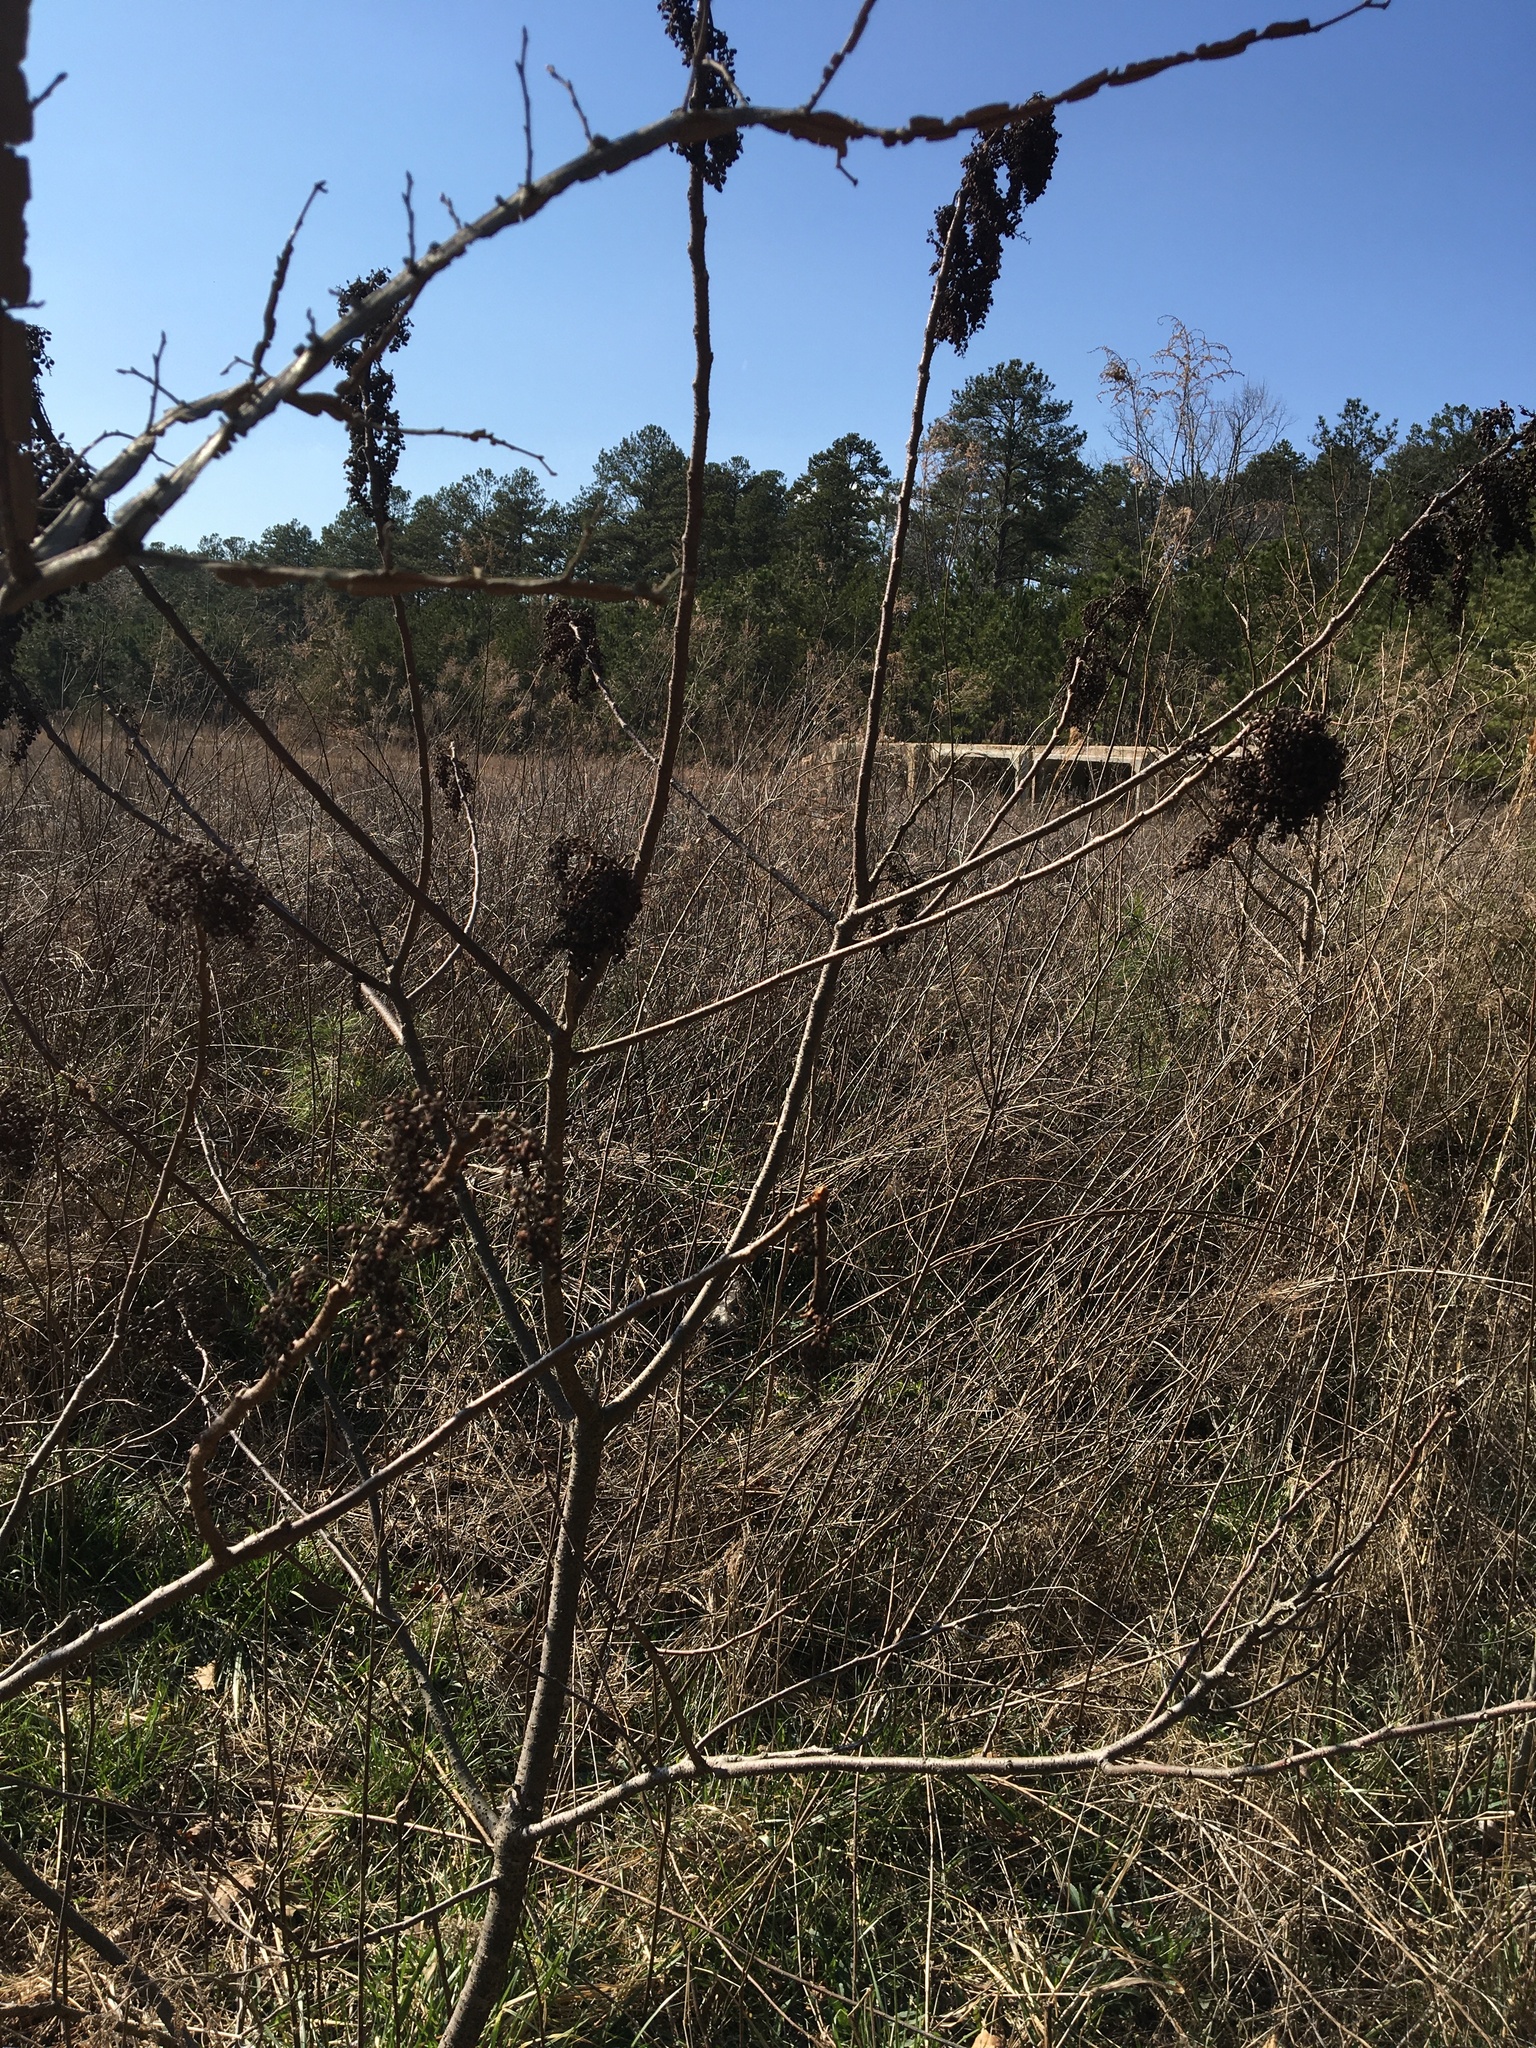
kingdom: Plantae
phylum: Tracheophyta
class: Magnoliopsida
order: Sapindales
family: Anacardiaceae
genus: Rhus
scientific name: Rhus copallina
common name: Shining sumac
